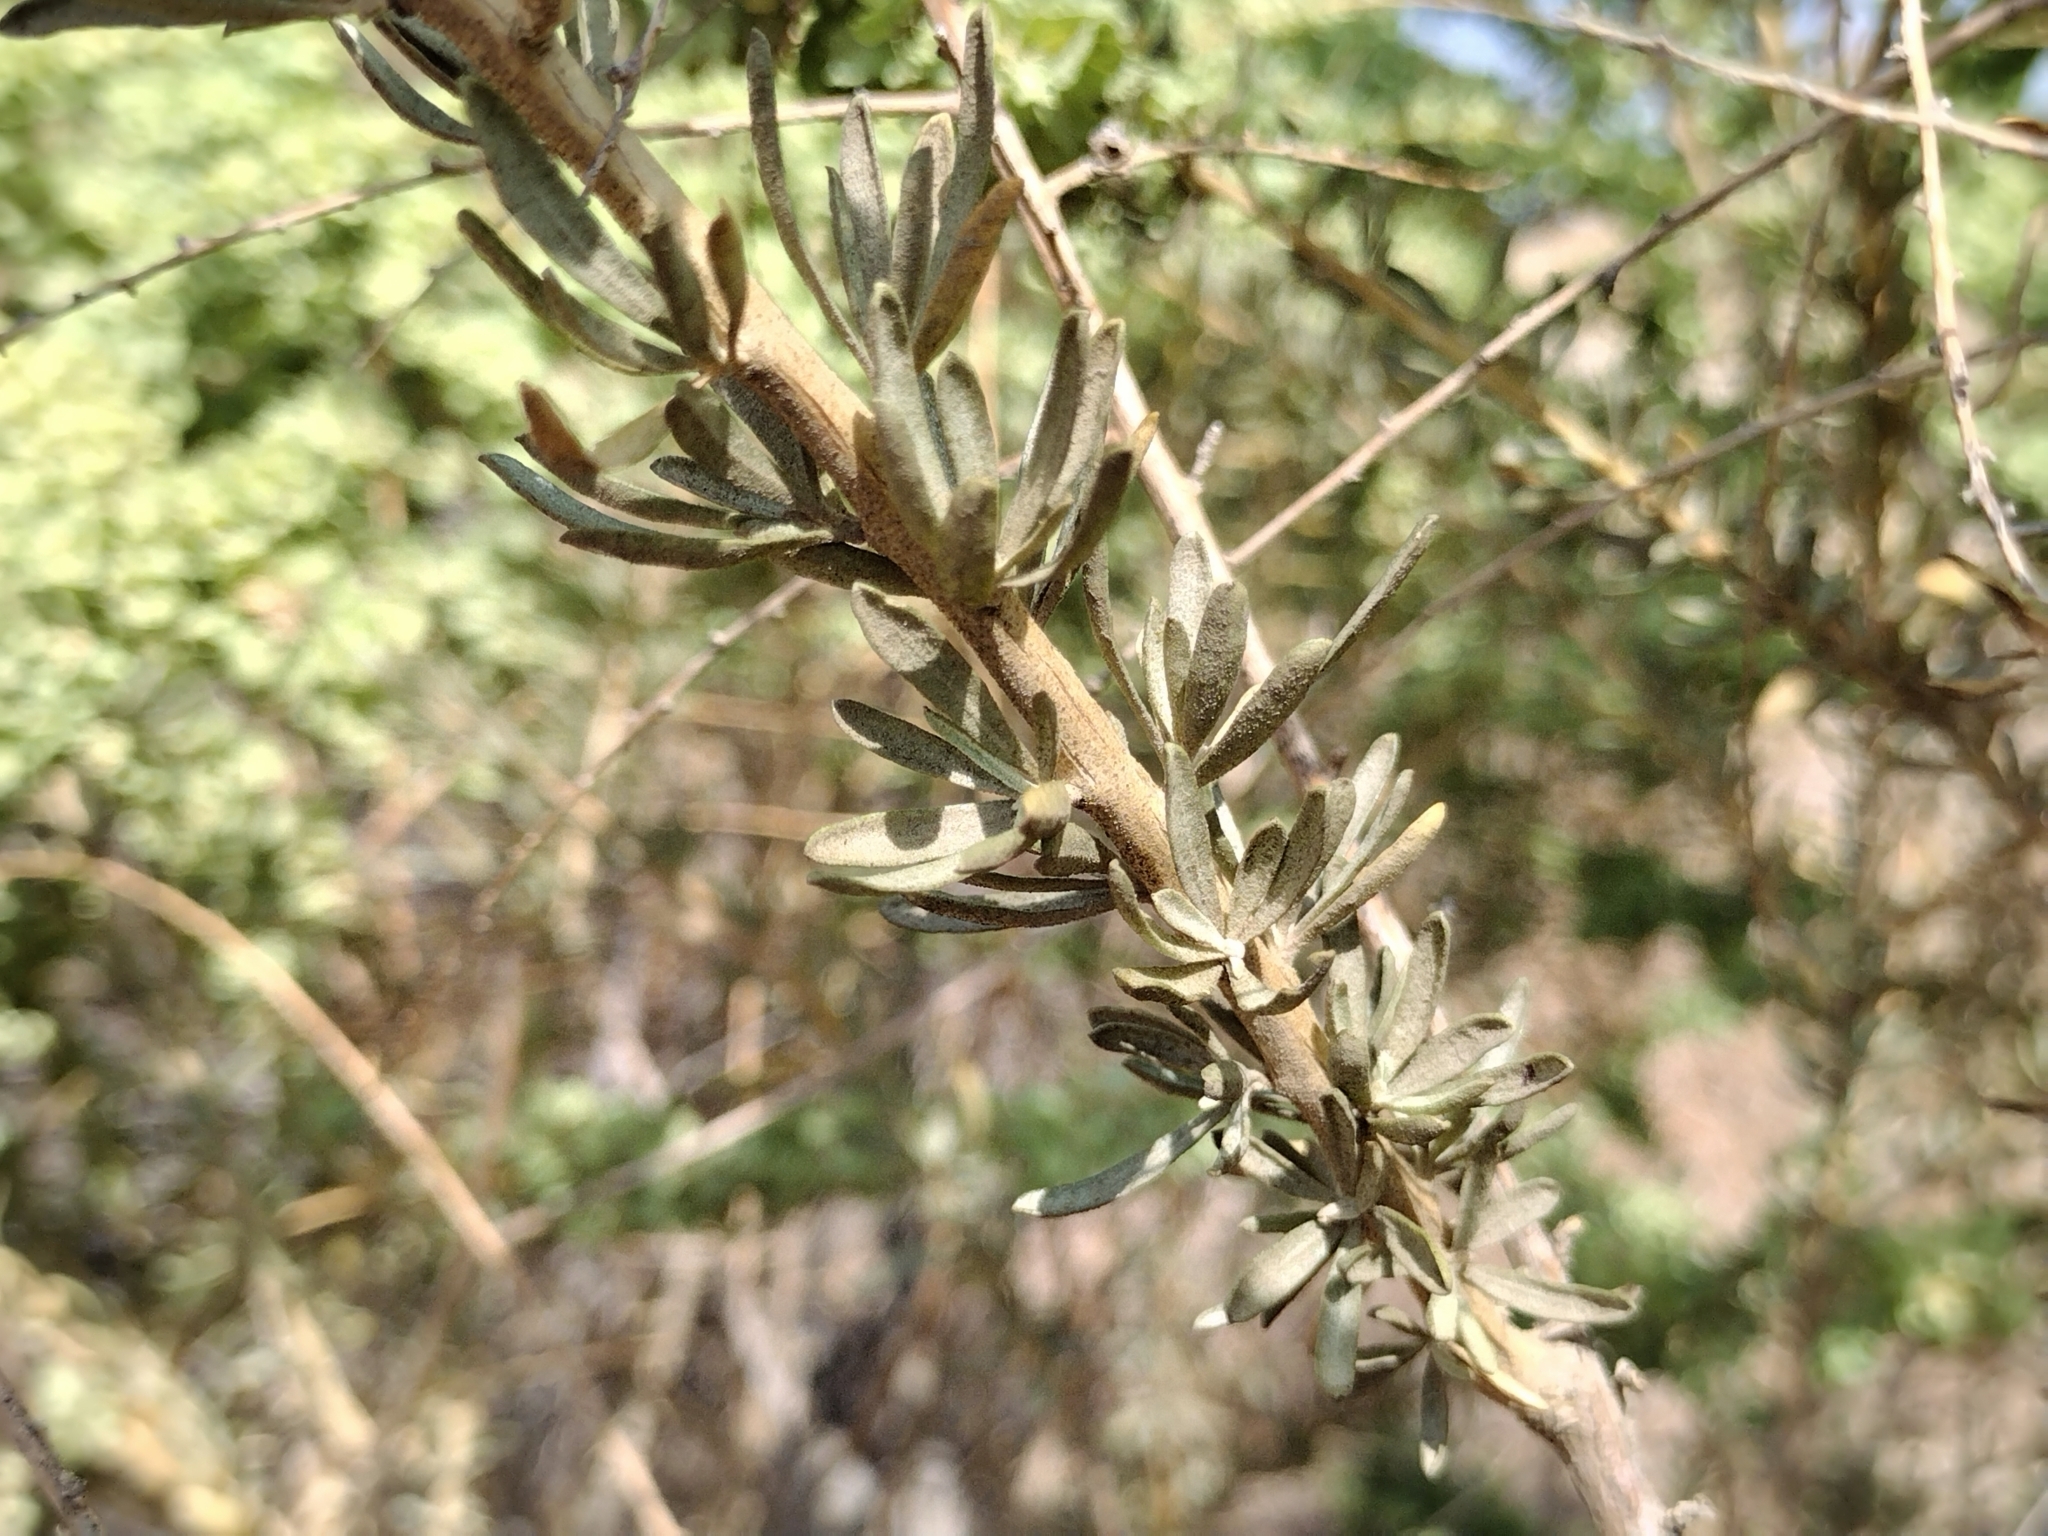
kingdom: Plantae
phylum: Tracheophyta
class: Magnoliopsida
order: Caryophyllales
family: Amaranthaceae
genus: Atriplex
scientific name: Atriplex canescens
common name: Four-wing saltbush
